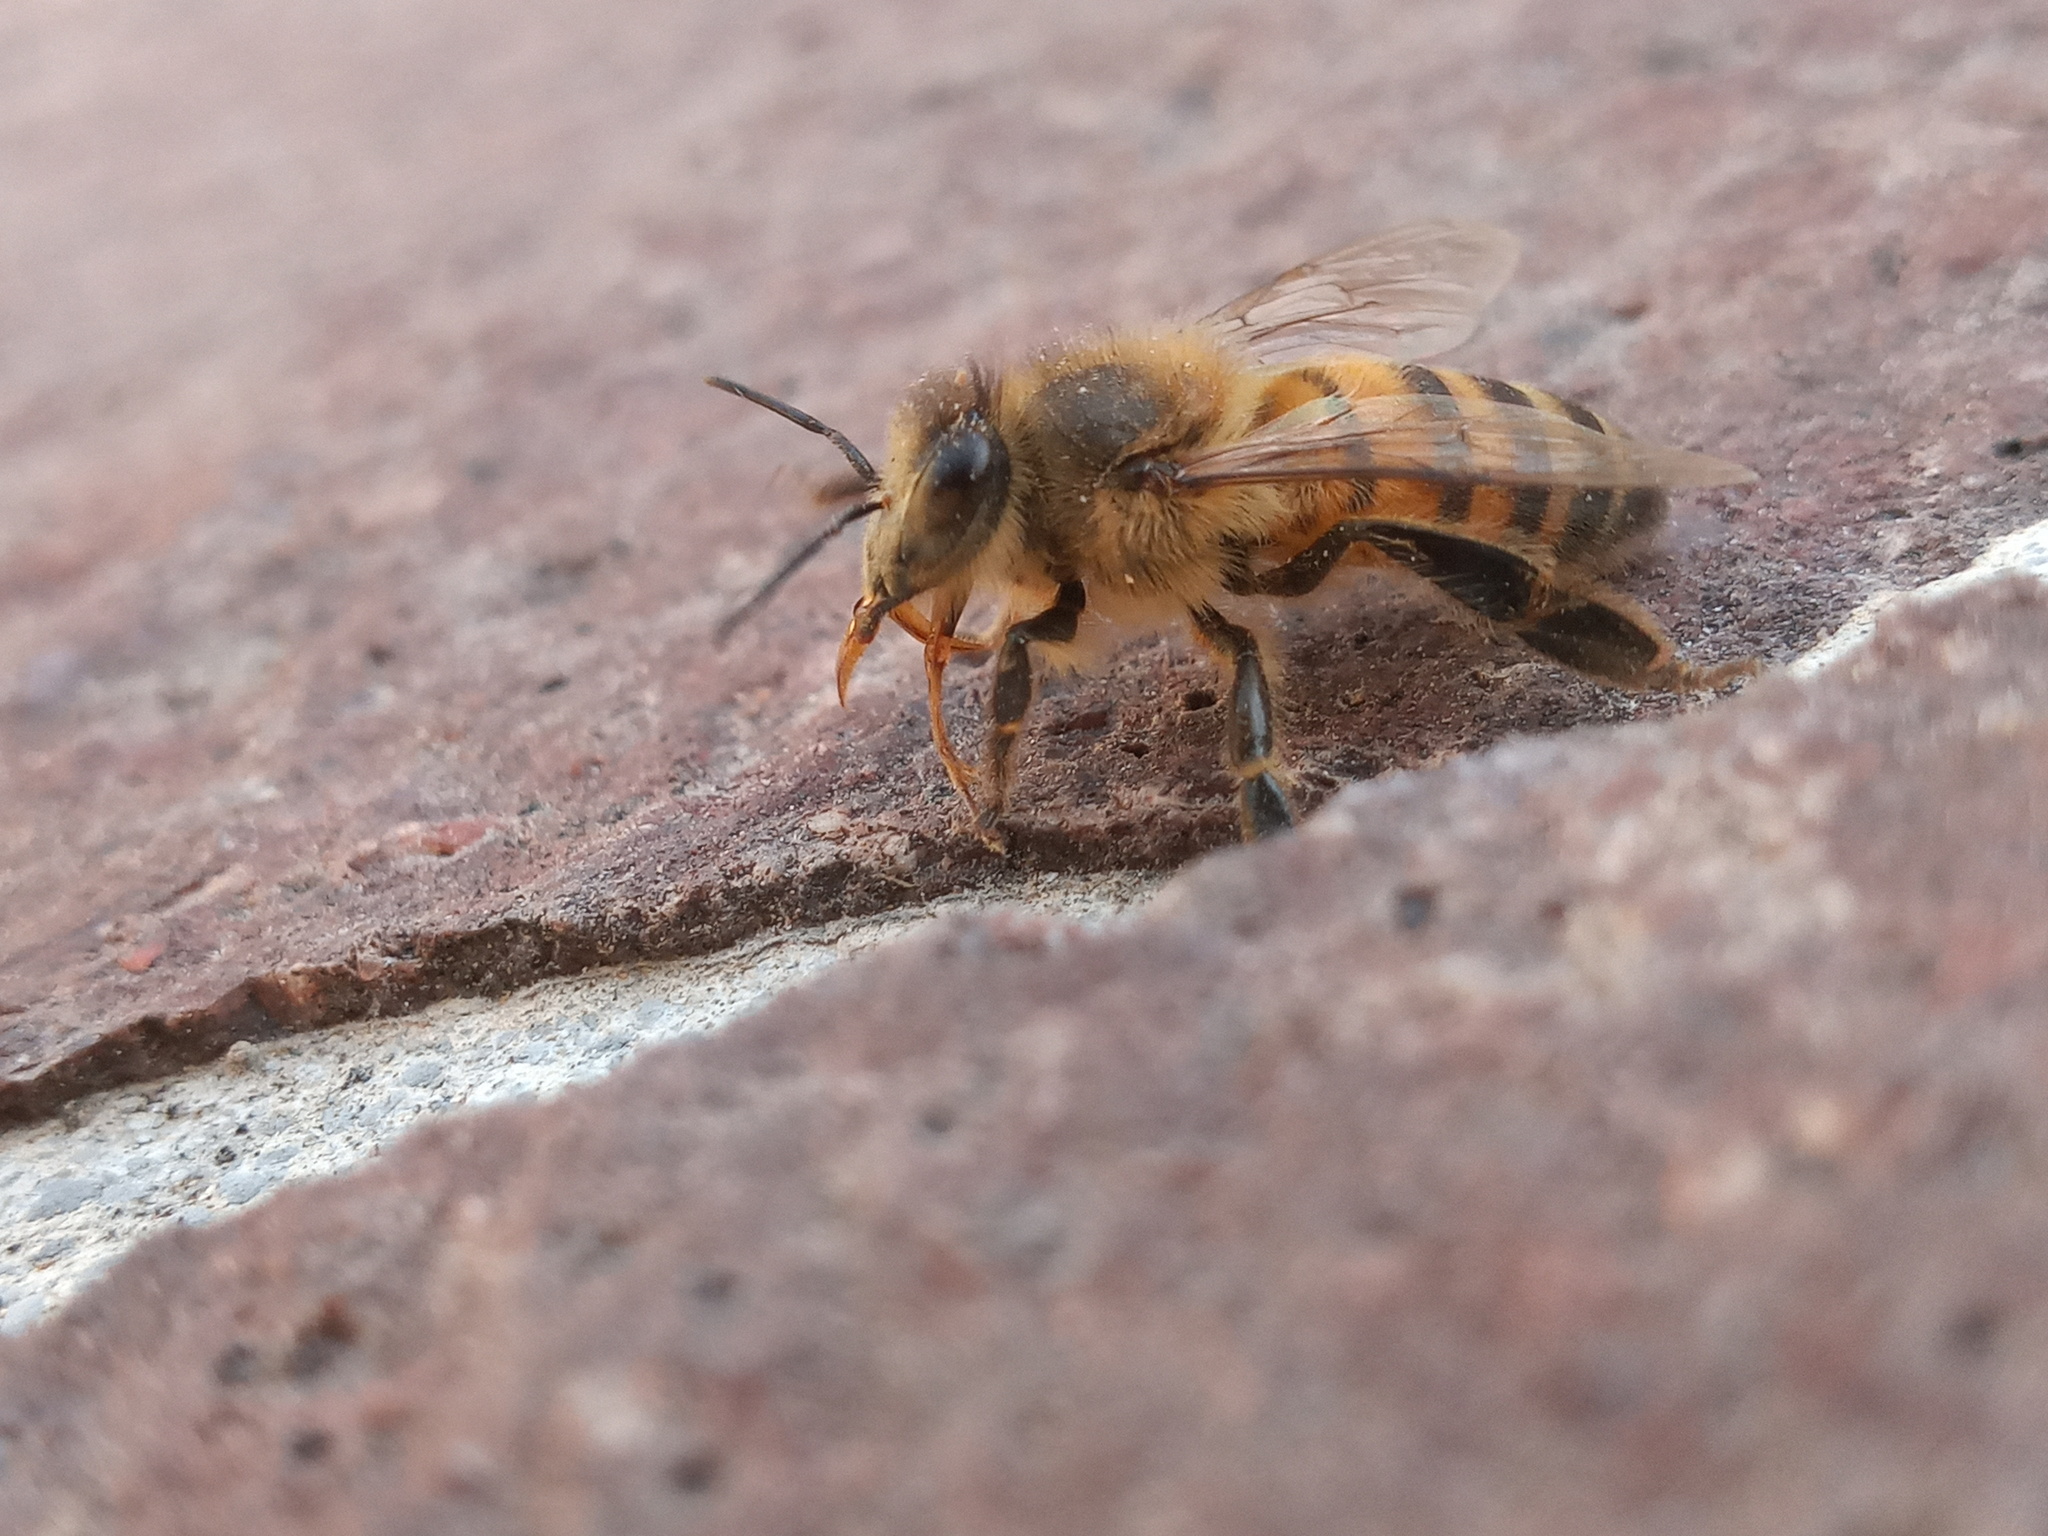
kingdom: Animalia
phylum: Arthropoda
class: Insecta
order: Hymenoptera
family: Apidae
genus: Apis
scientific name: Apis mellifera
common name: Honey bee
